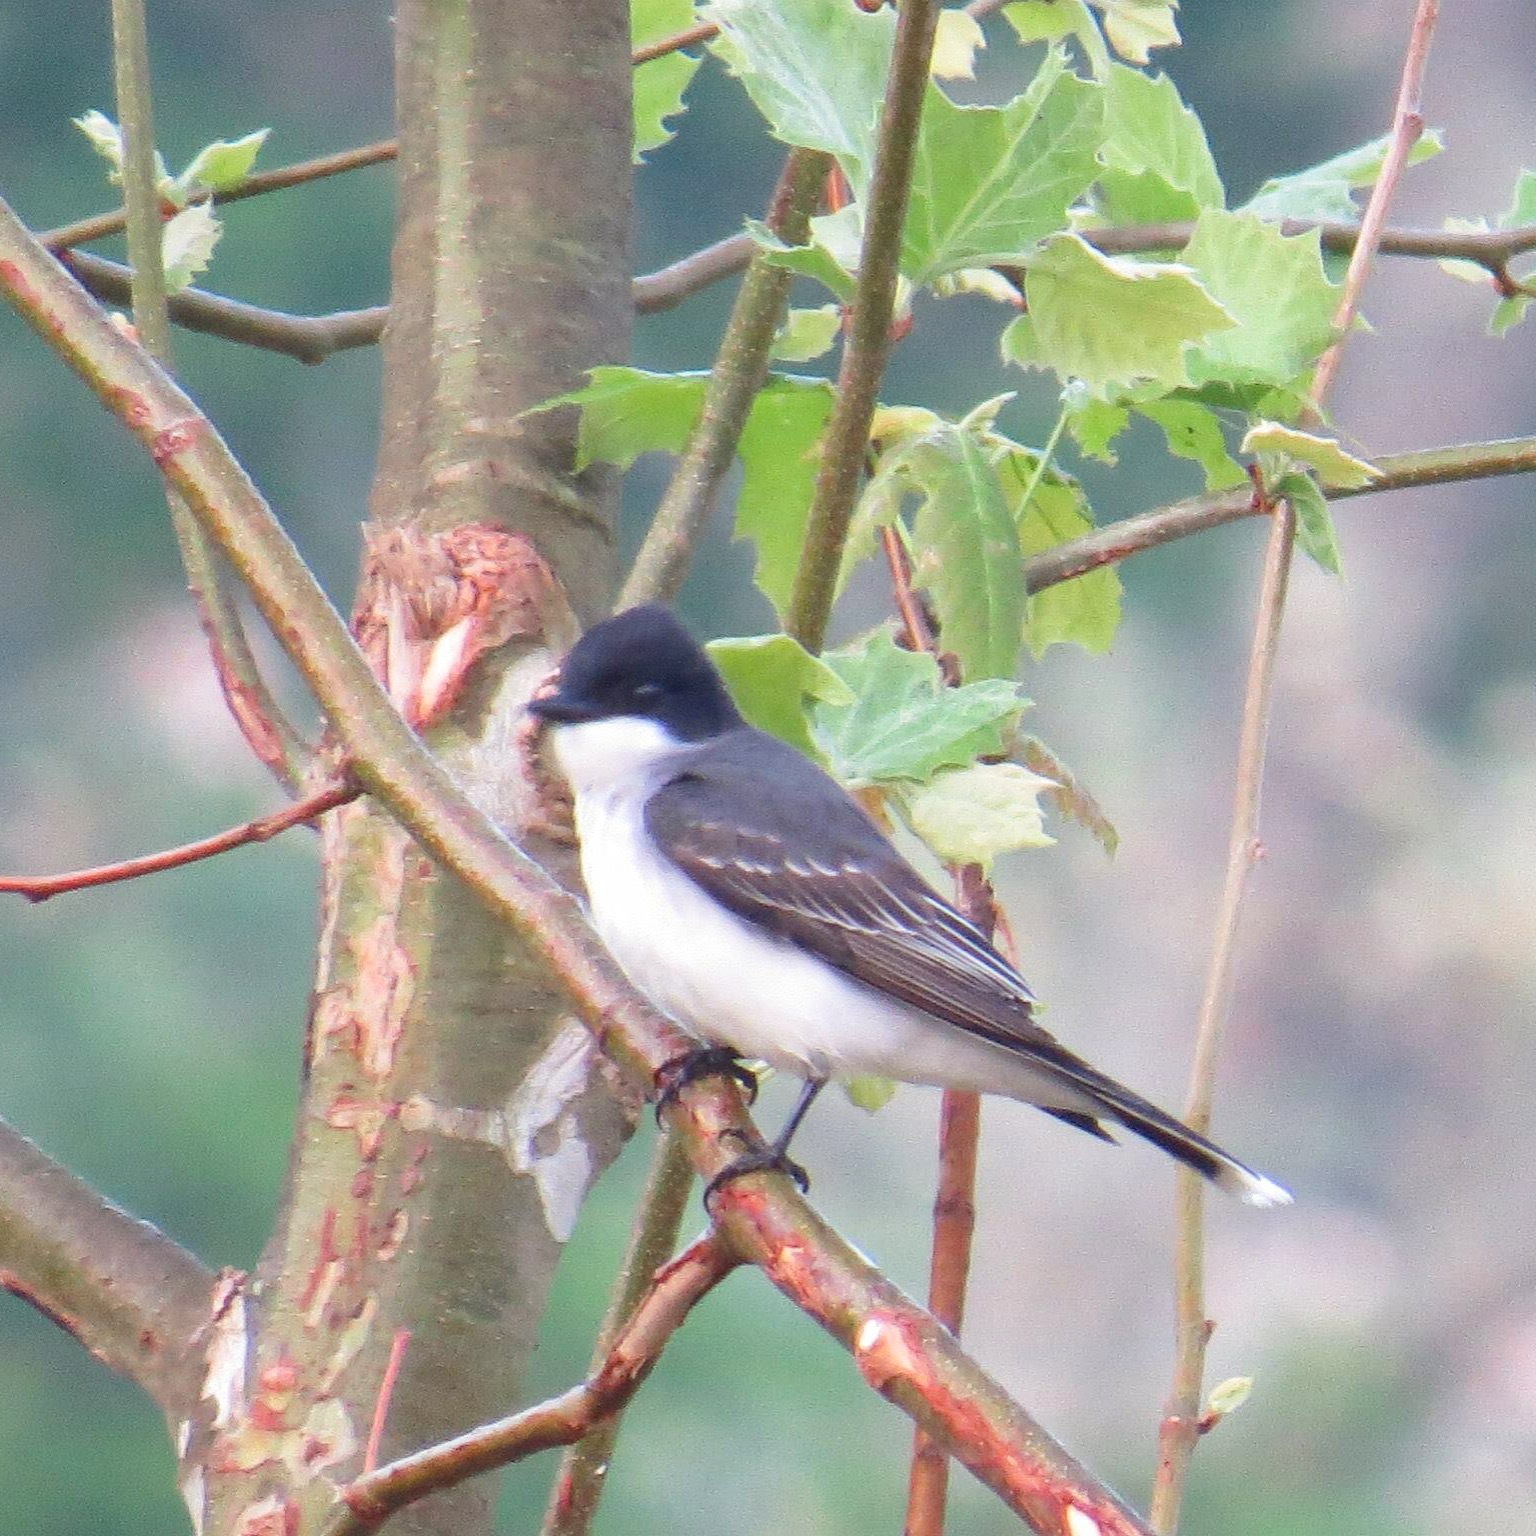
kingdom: Animalia
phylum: Chordata
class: Aves
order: Passeriformes
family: Tyrannidae
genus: Tyrannus
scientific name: Tyrannus tyrannus
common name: Eastern kingbird
